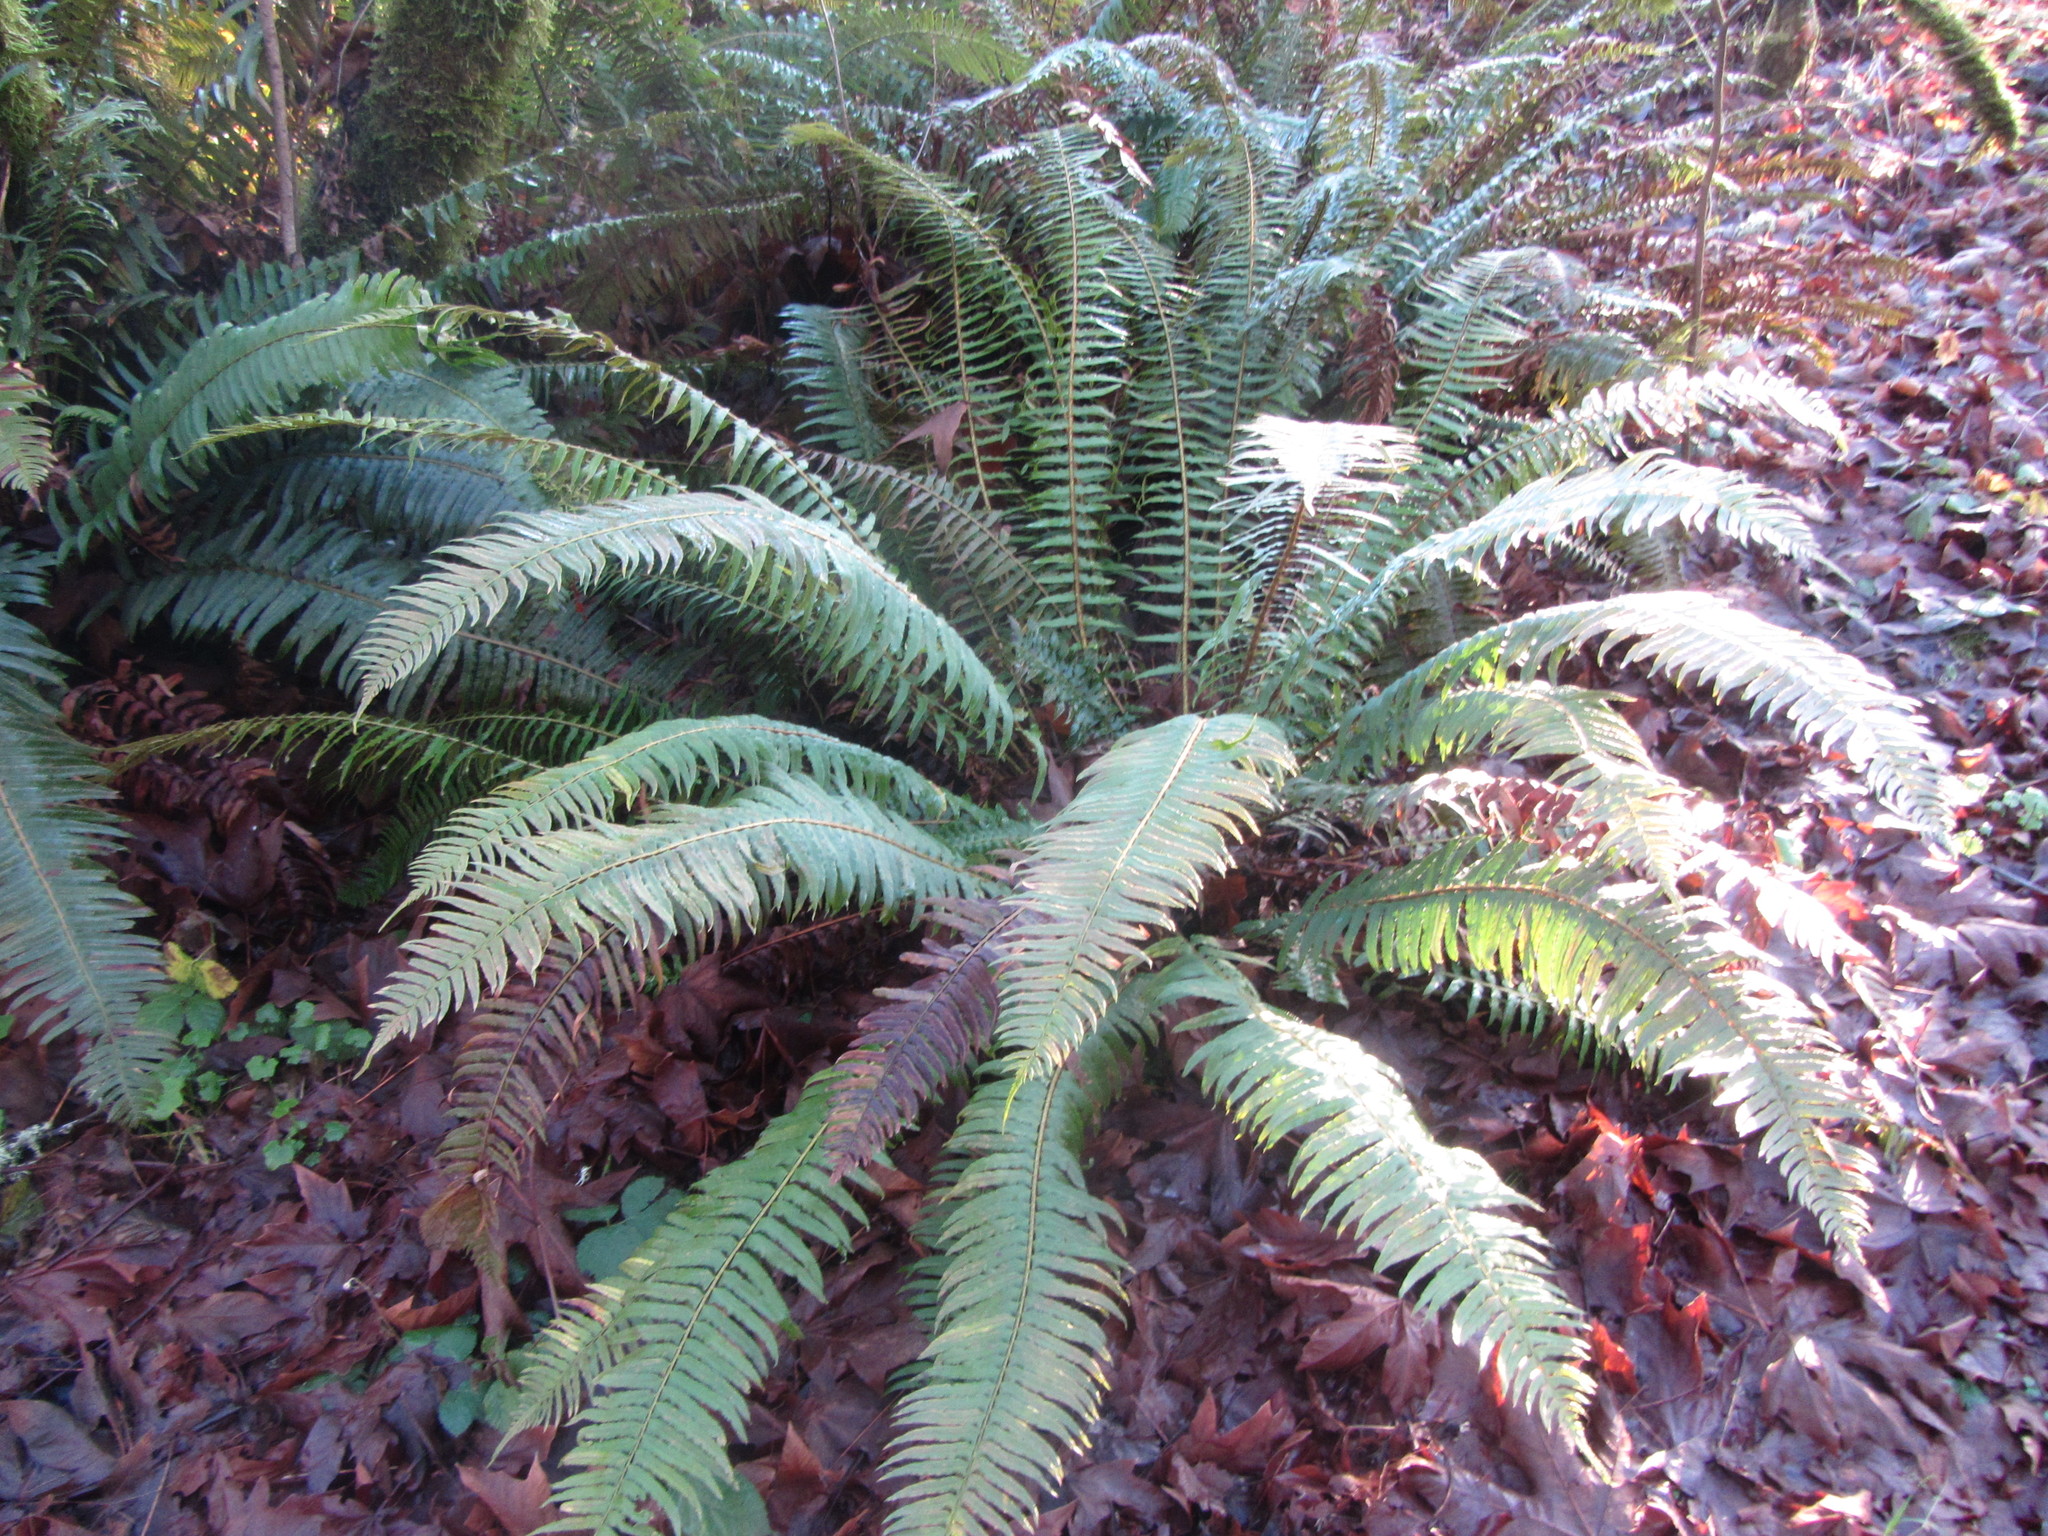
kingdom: Plantae
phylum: Tracheophyta
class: Polypodiopsida
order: Polypodiales
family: Dryopteridaceae
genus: Polystichum
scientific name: Polystichum munitum
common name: Western sword-fern
